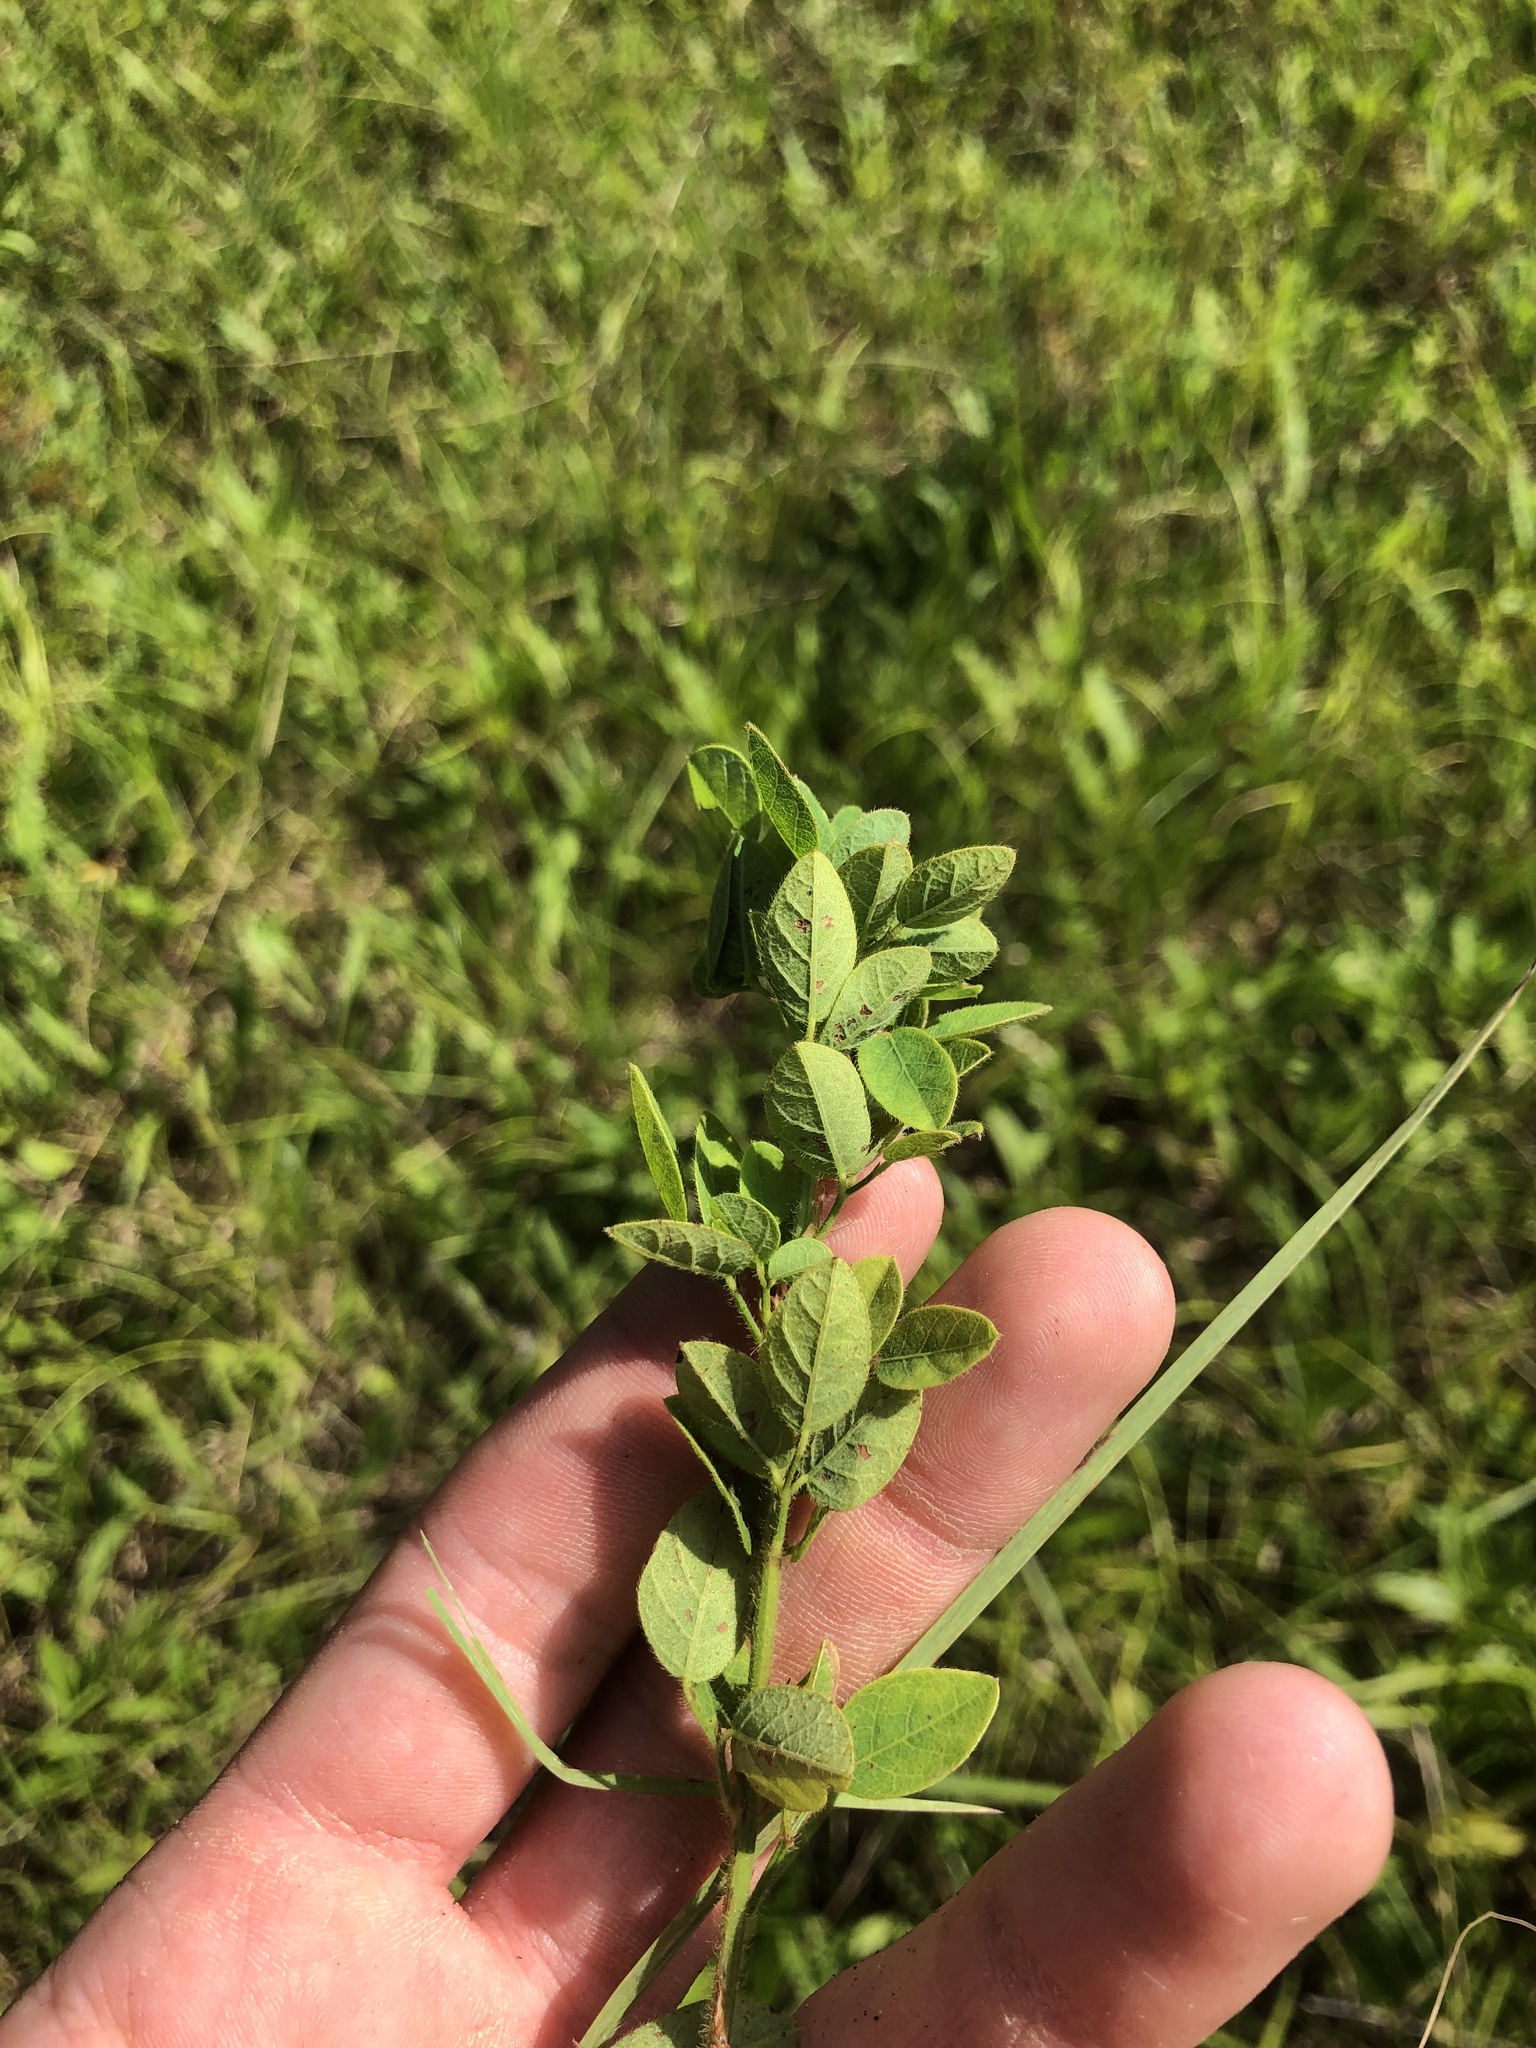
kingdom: Plantae
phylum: Tracheophyta
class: Magnoliopsida
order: Fabales
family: Fabaceae
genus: Desmodium
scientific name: Desmodium ciliare
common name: Hairy small-leaf ticktrefoil
